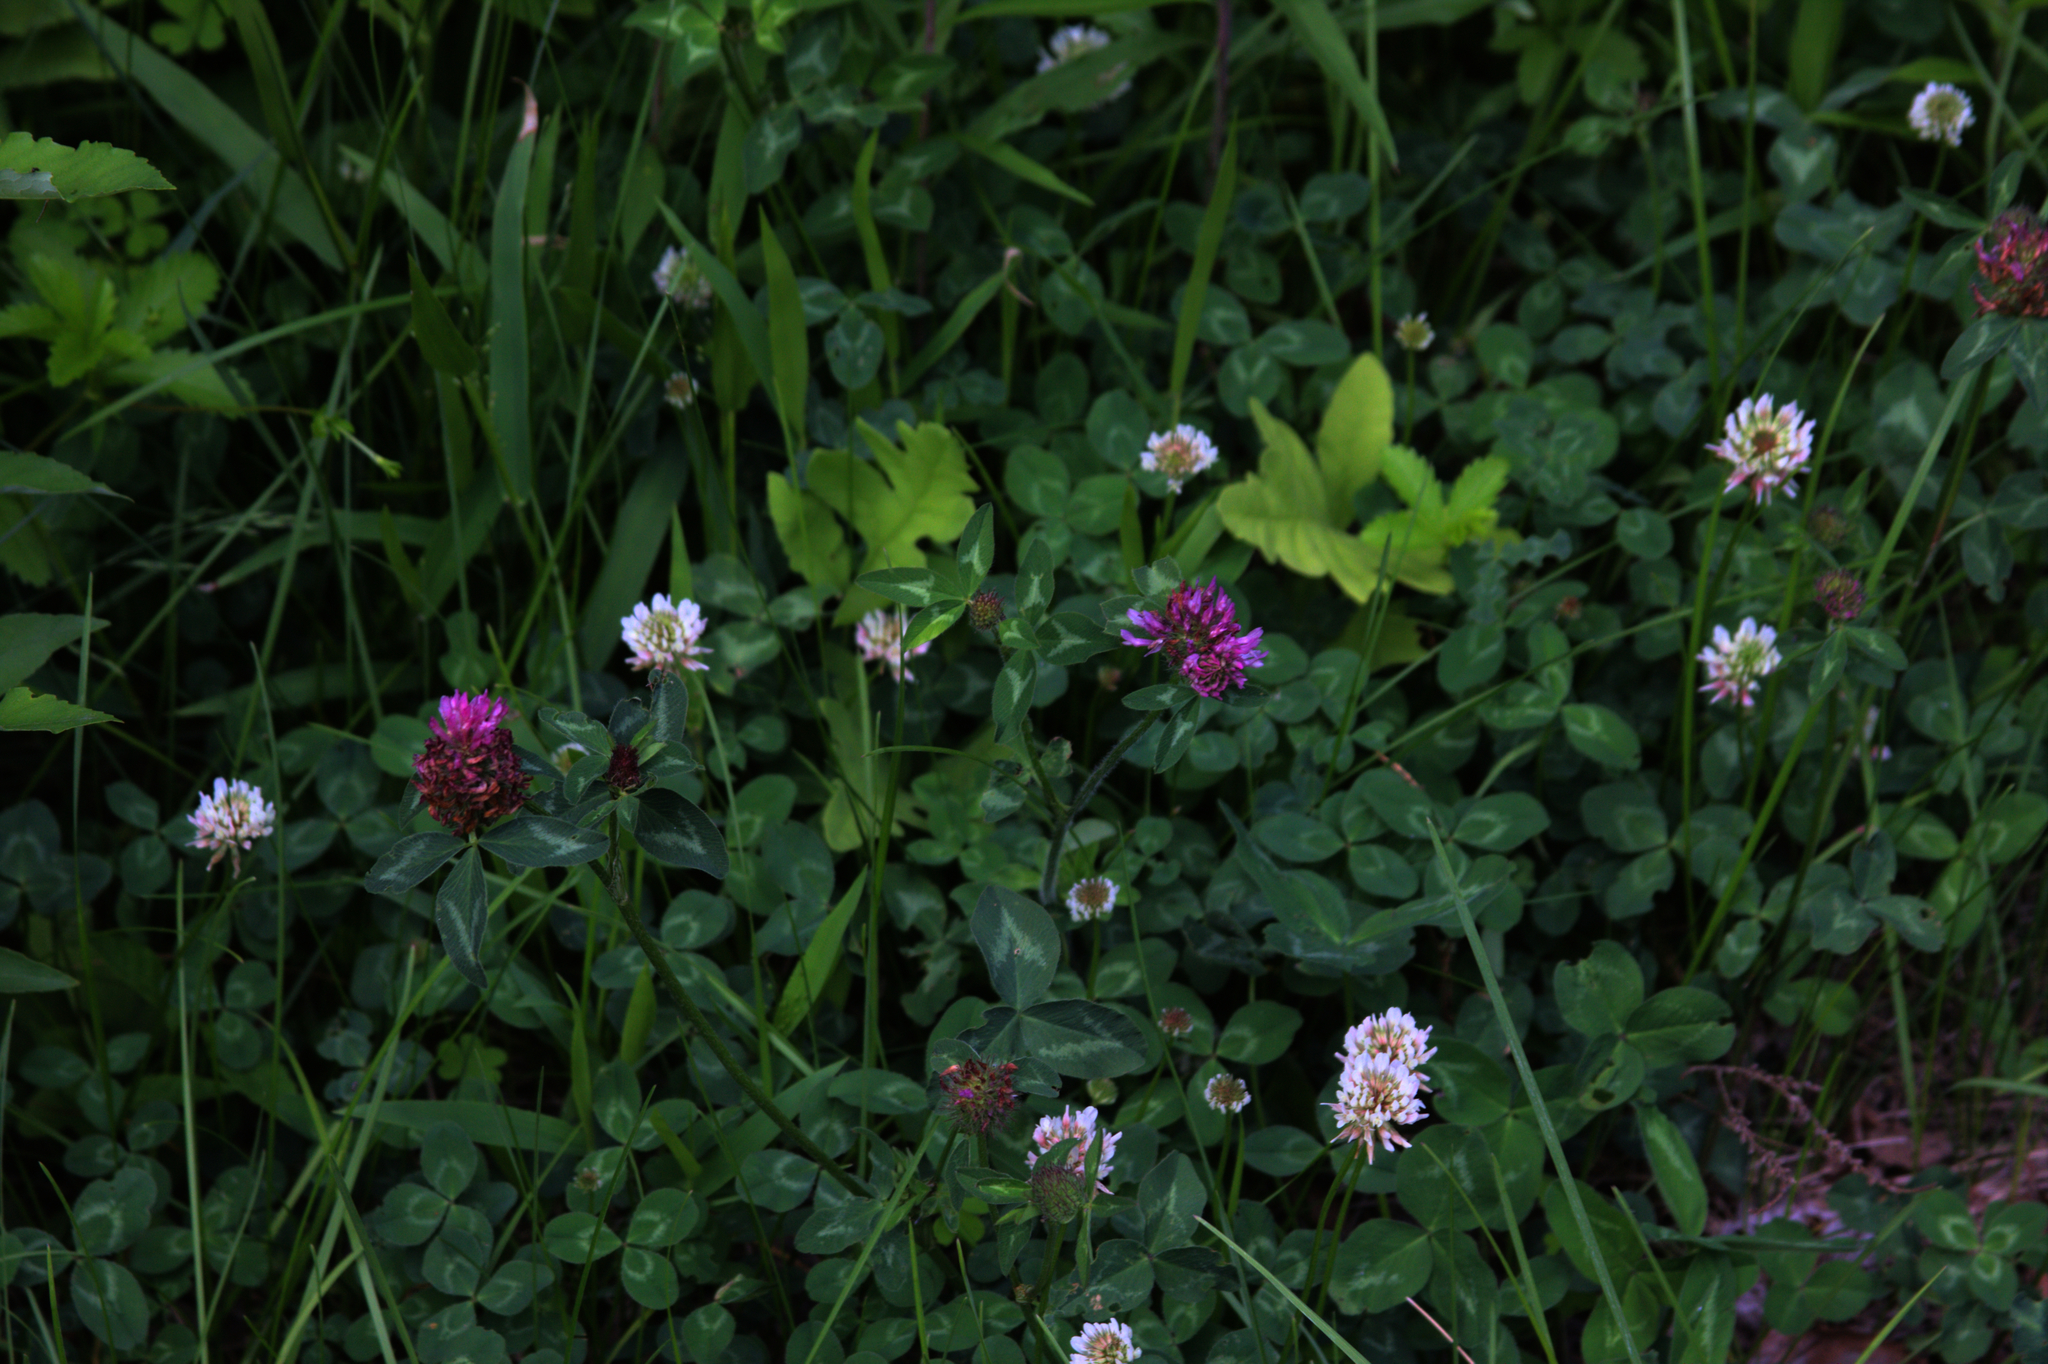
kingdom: Plantae
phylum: Tracheophyta
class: Magnoliopsida
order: Fabales
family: Fabaceae
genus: Trifolium
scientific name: Trifolium pratense
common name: Red clover
